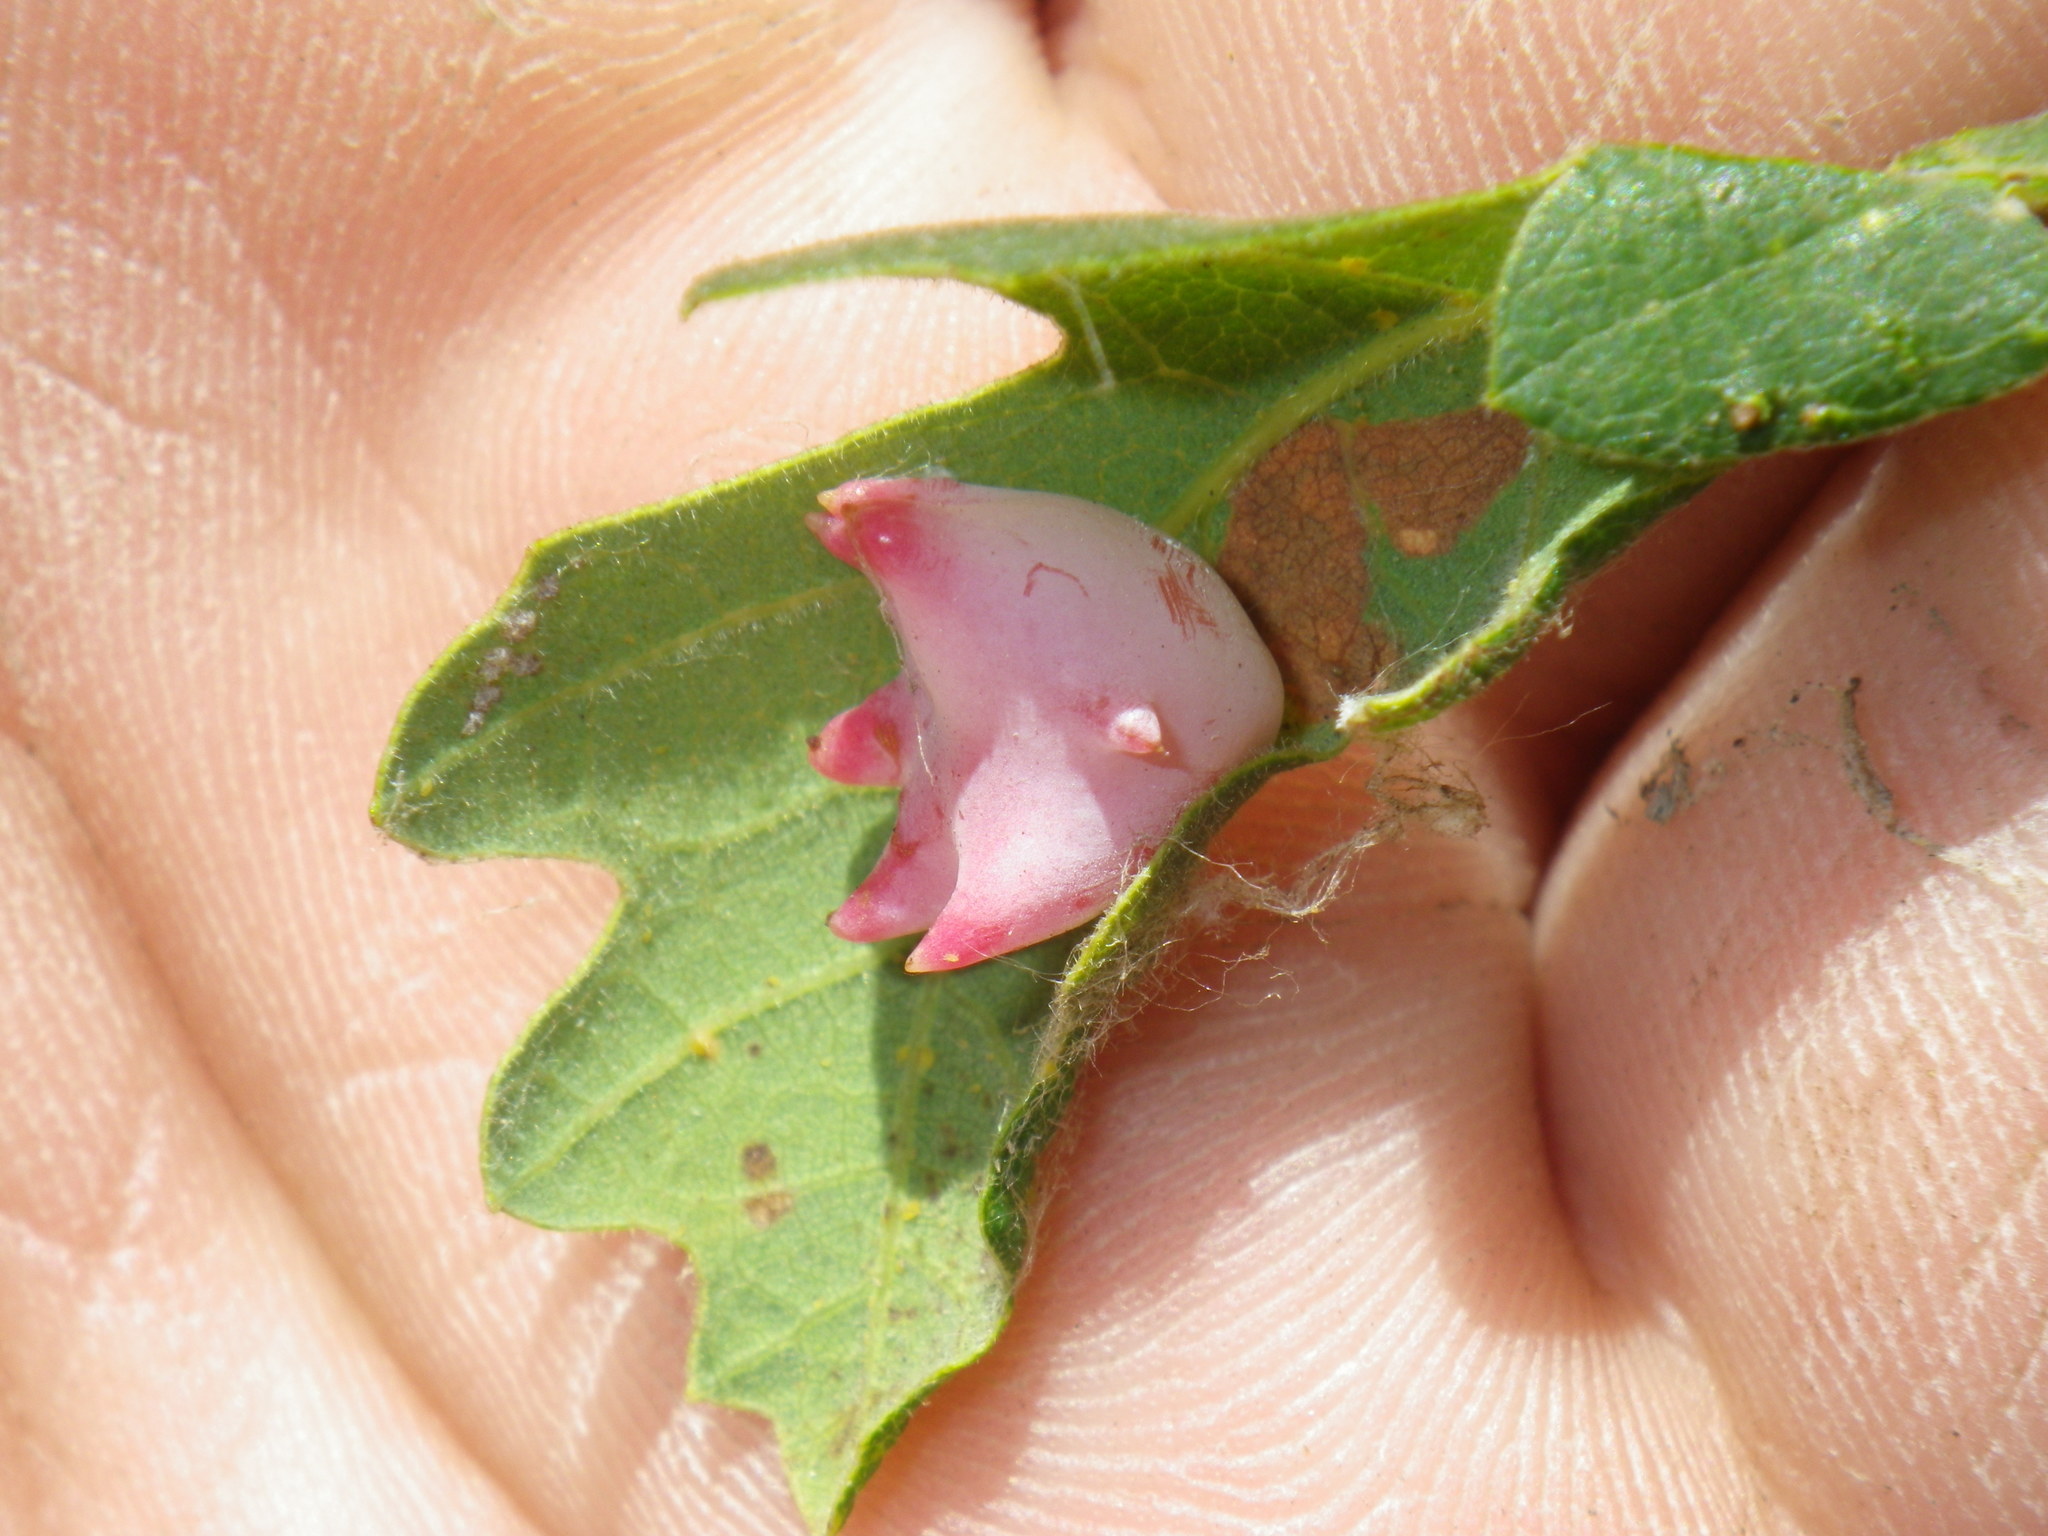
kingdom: Animalia
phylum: Arthropoda
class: Insecta
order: Hymenoptera
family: Cynipidae
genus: Cynips
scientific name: Cynips douglasi
